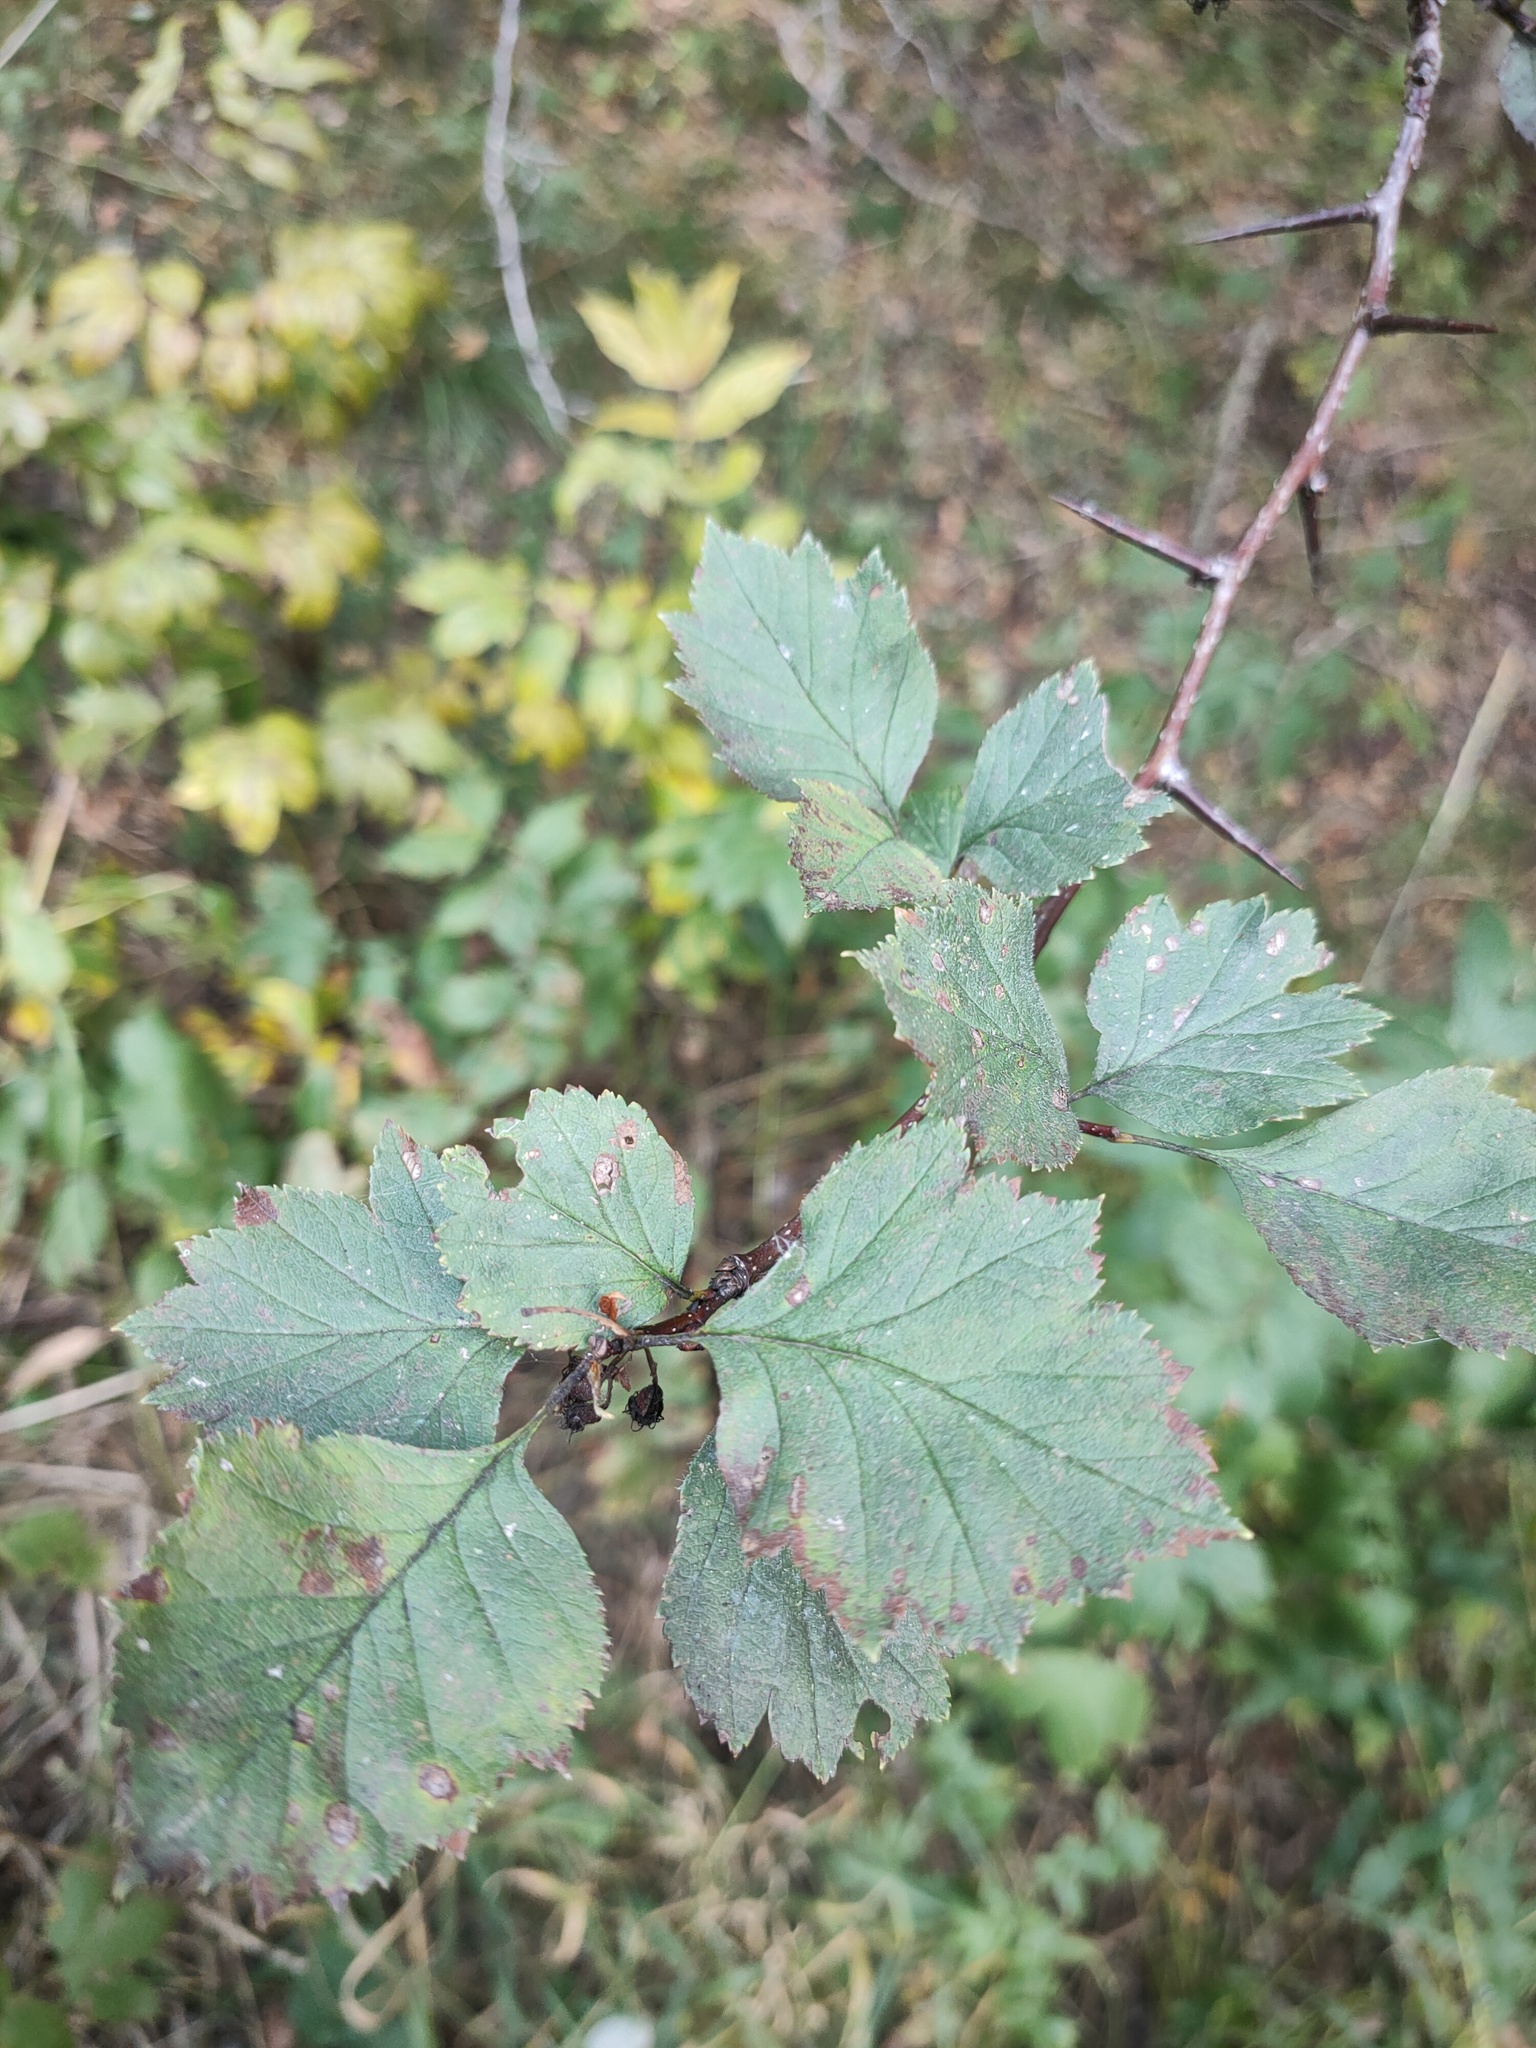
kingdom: Plantae
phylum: Tracheophyta
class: Magnoliopsida
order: Rosales
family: Rosaceae
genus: Crataegus
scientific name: Crataegus sanguinea
